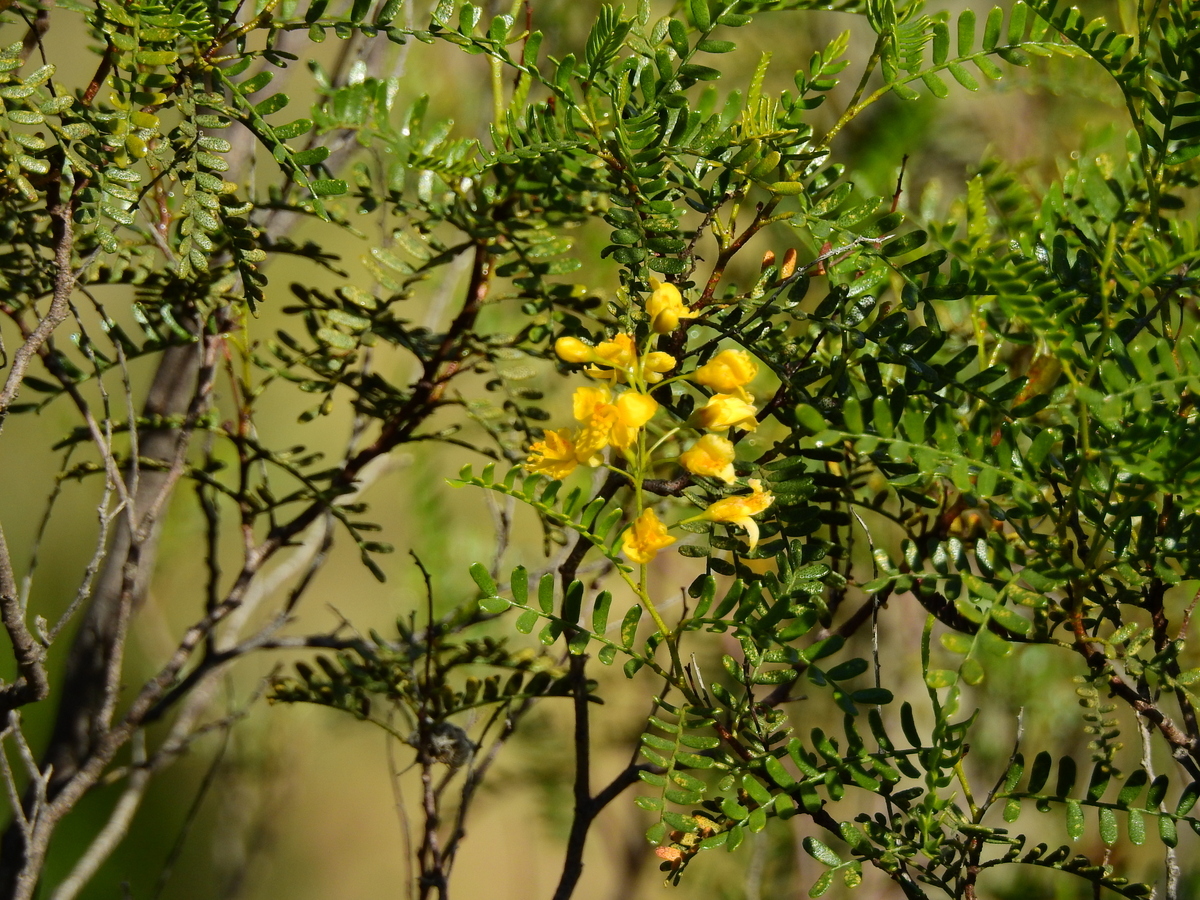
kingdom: Plantae
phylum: Tracheophyta
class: Magnoliopsida
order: Fabales
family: Fabaceae
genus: Zuccagnia
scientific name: Zuccagnia punctata
